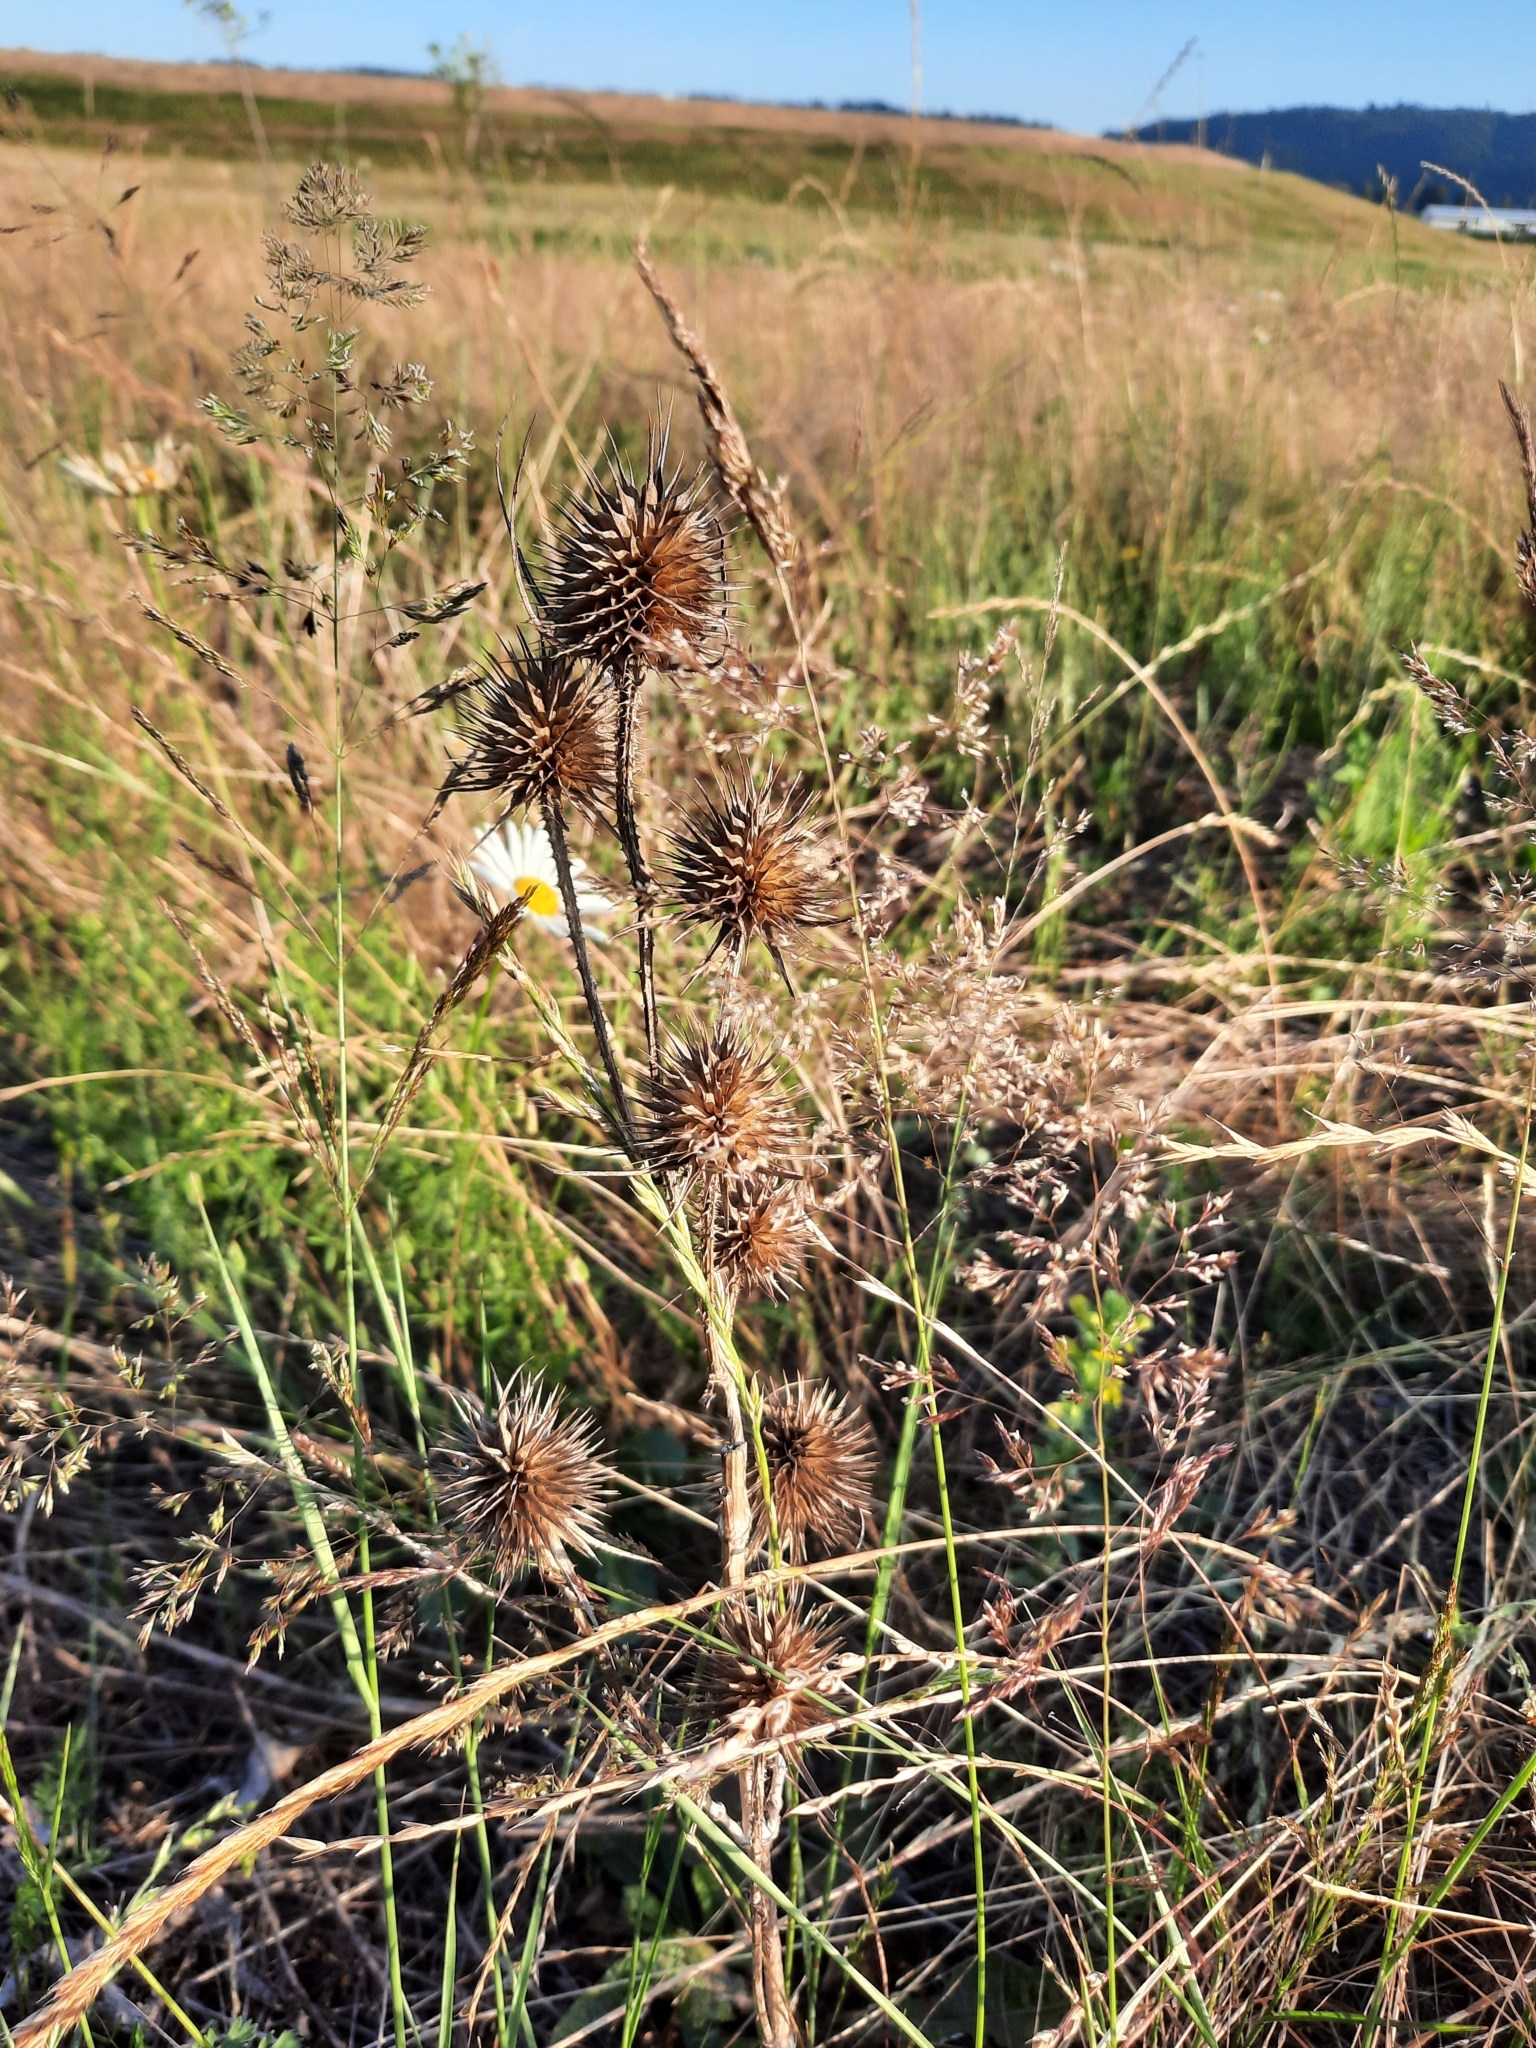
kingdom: Plantae
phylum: Tracheophyta
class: Magnoliopsida
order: Dipsacales
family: Caprifoliaceae
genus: Dipsacus
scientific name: Dipsacus fullonum
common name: Teasel
